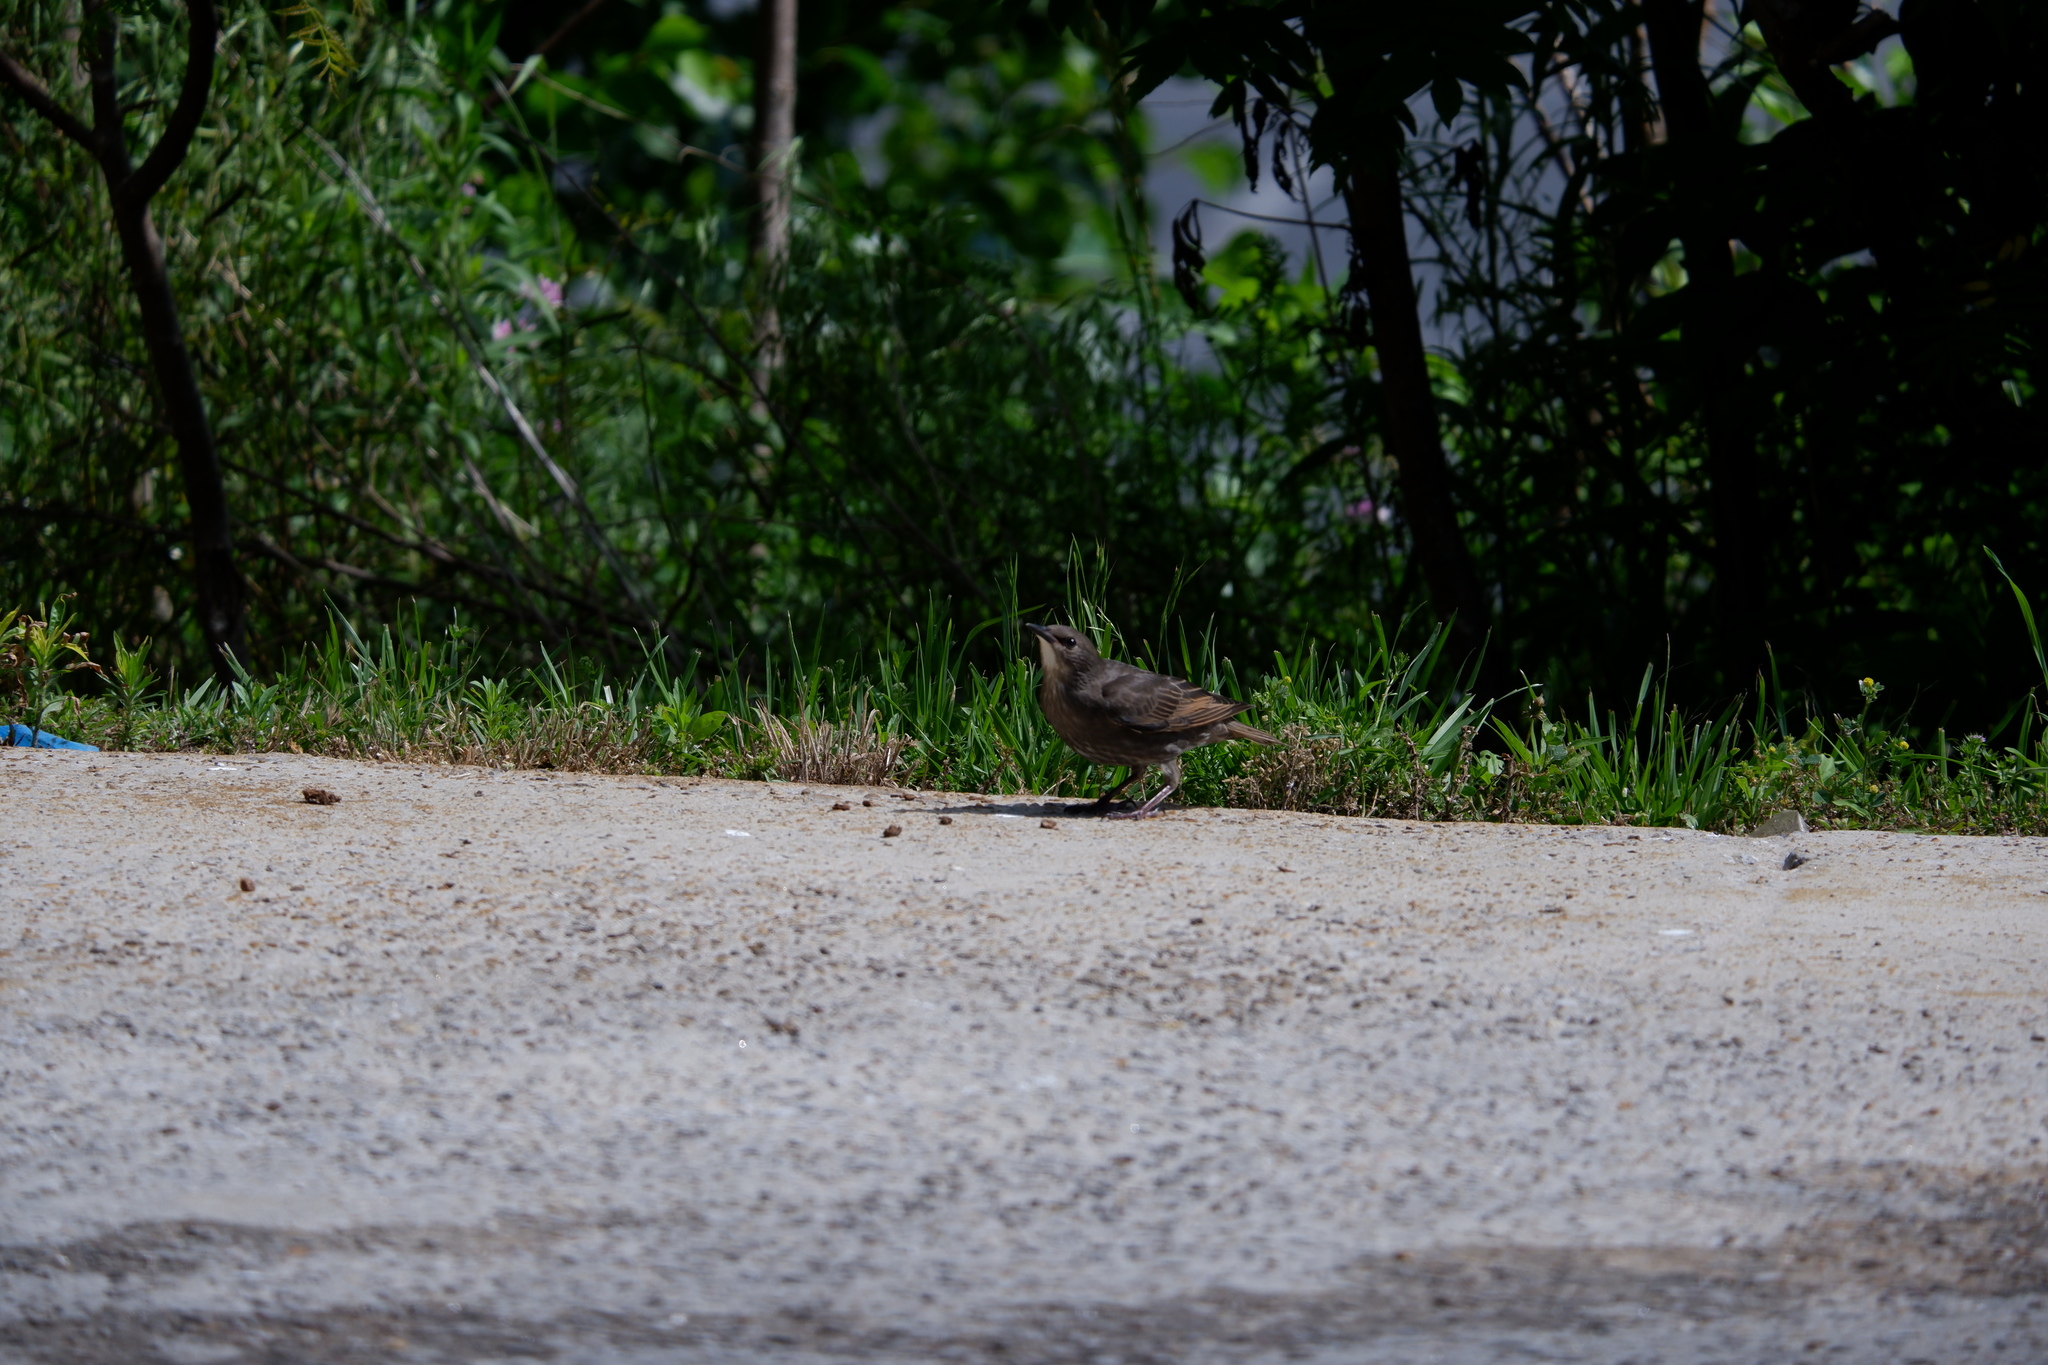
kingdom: Animalia
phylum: Chordata
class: Aves
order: Passeriformes
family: Sturnidae
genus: Sturnus
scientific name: Sturnus vulgaris
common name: Common starling
